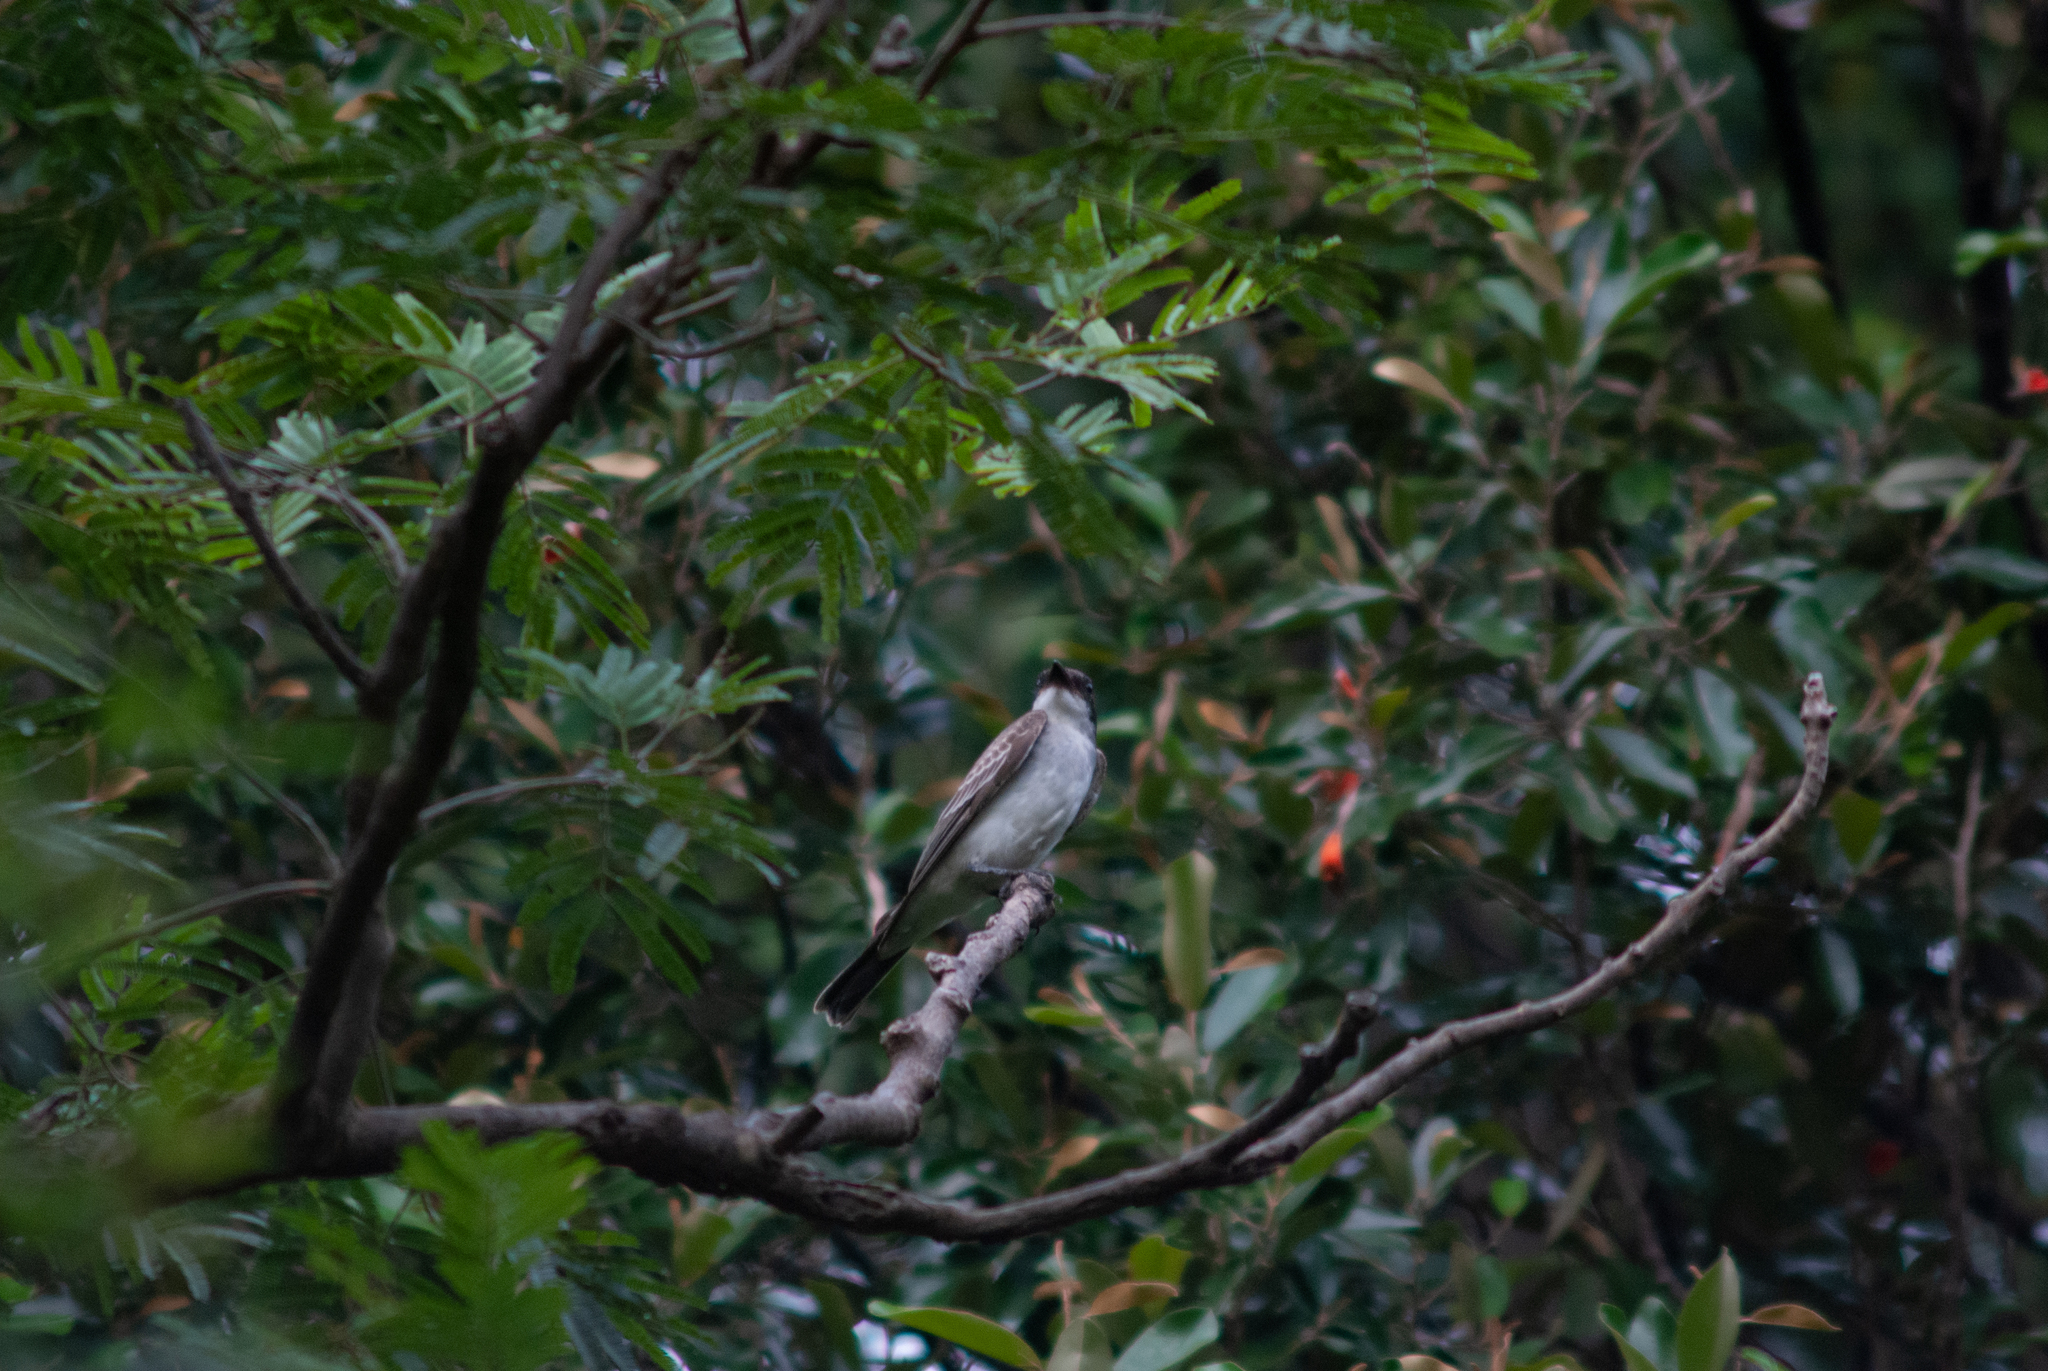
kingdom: Animalia
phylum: Chordata
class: Aves
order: Passeriformes
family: Tyrannidae
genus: Tyrannus
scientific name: Tyrannus tyrannus
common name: Eastern kingbird
